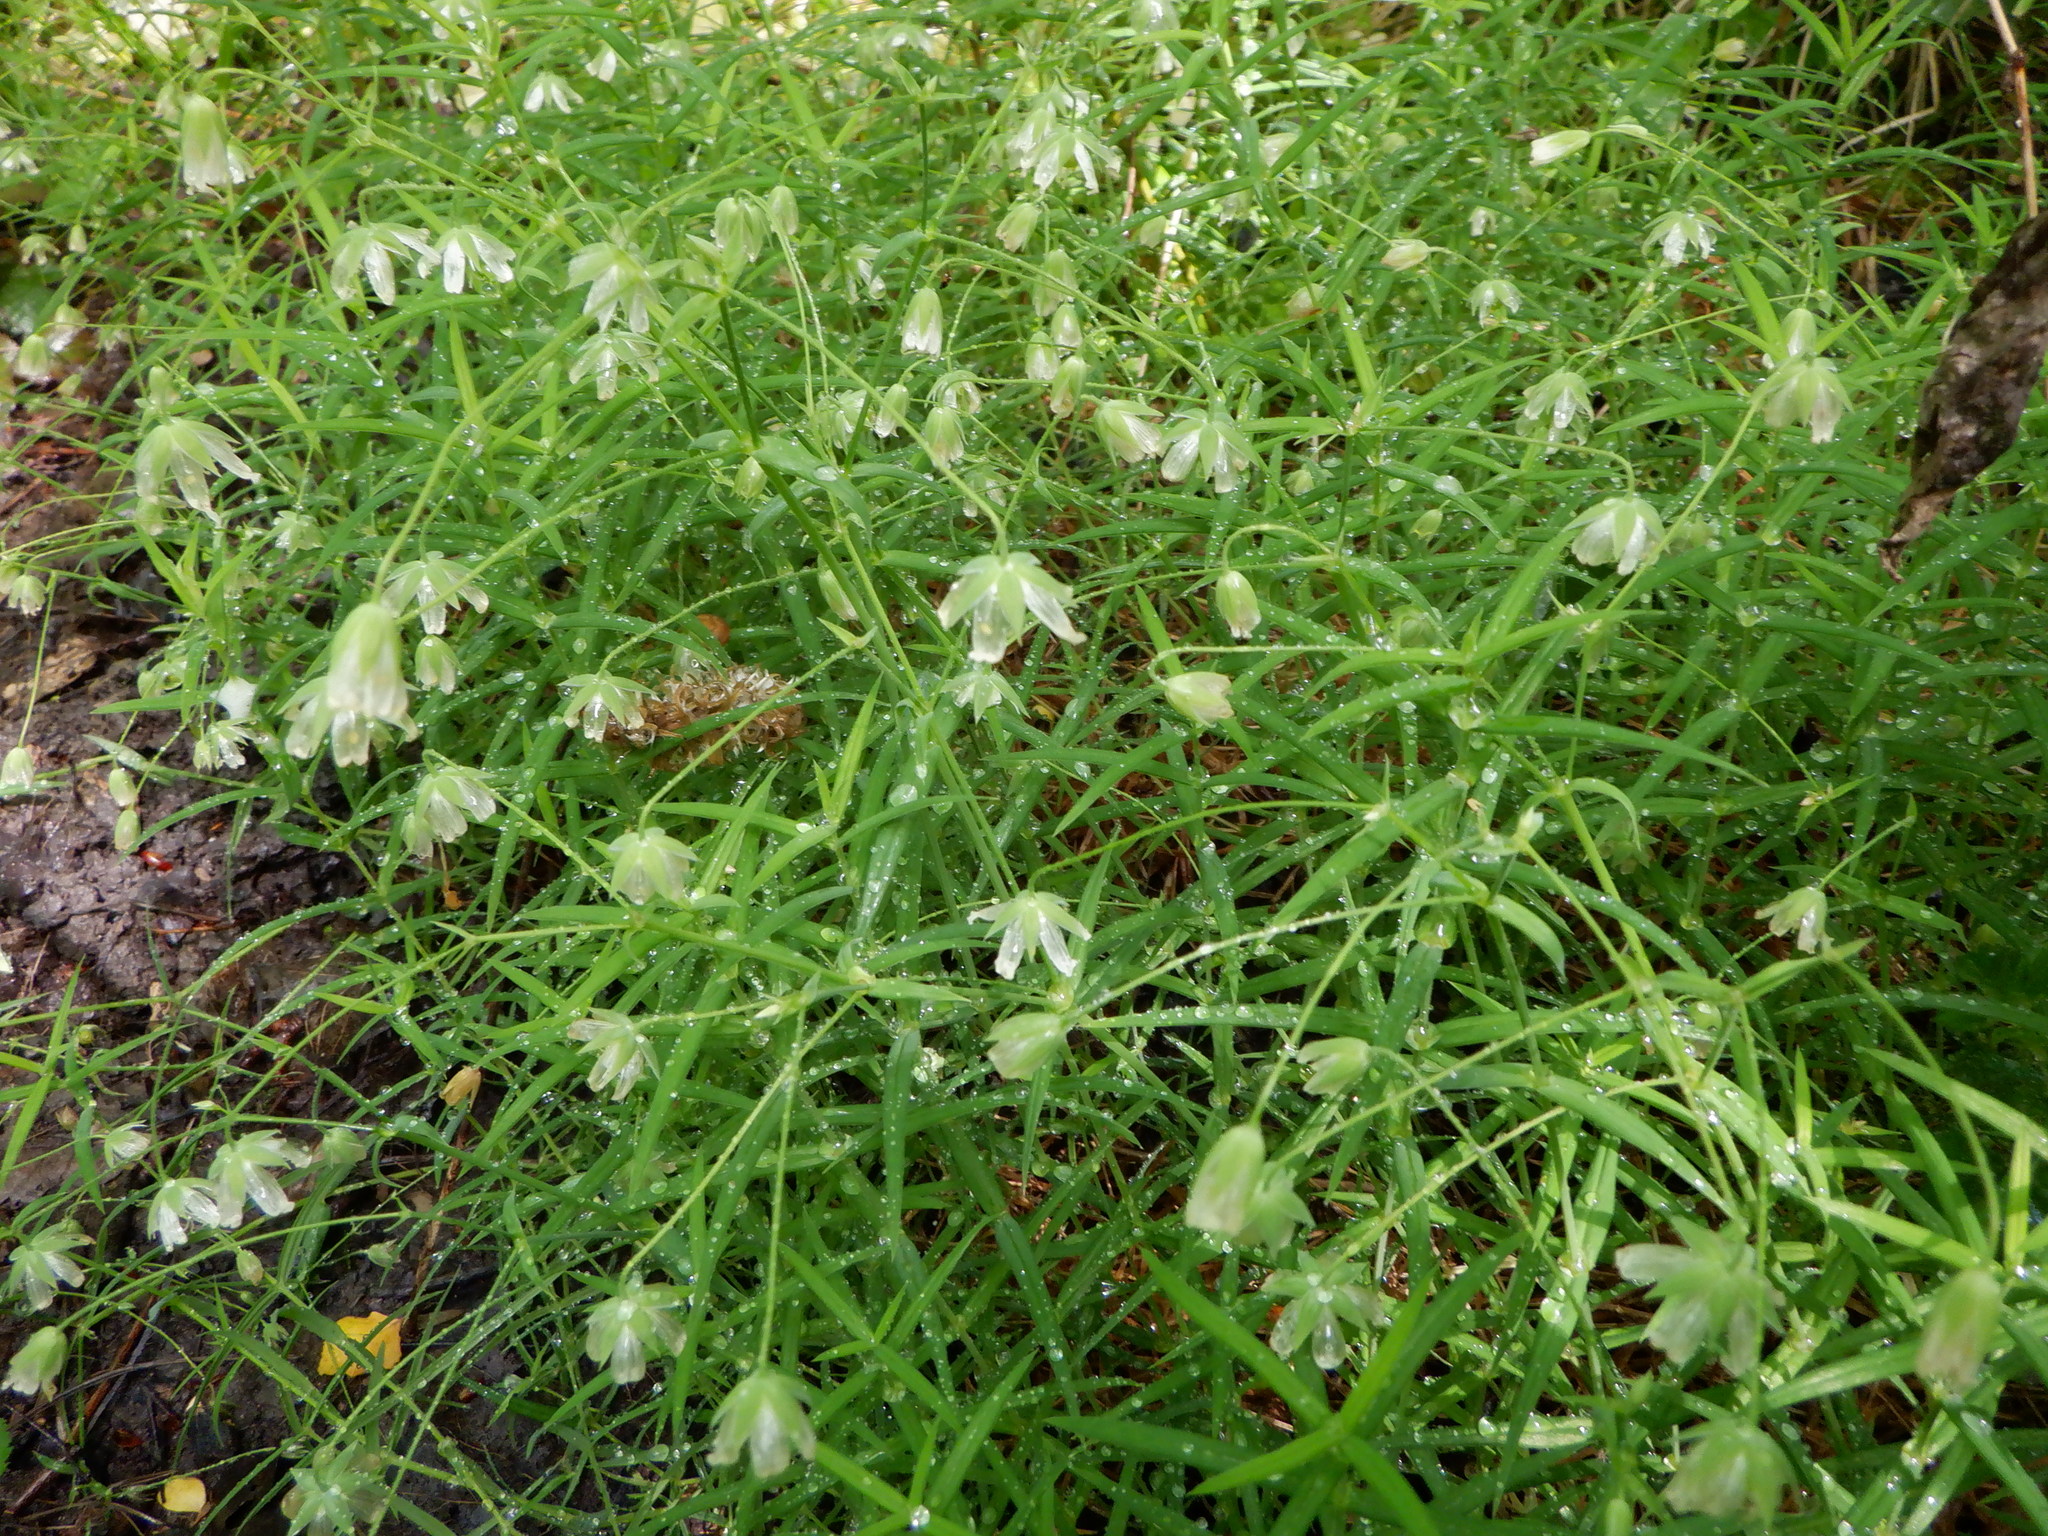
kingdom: Plantae
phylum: Tracheophyta
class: Magnoliopsida
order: Caryophyllales
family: Caryophyllaceae
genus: Rabelera
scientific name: Rabelera holostea
